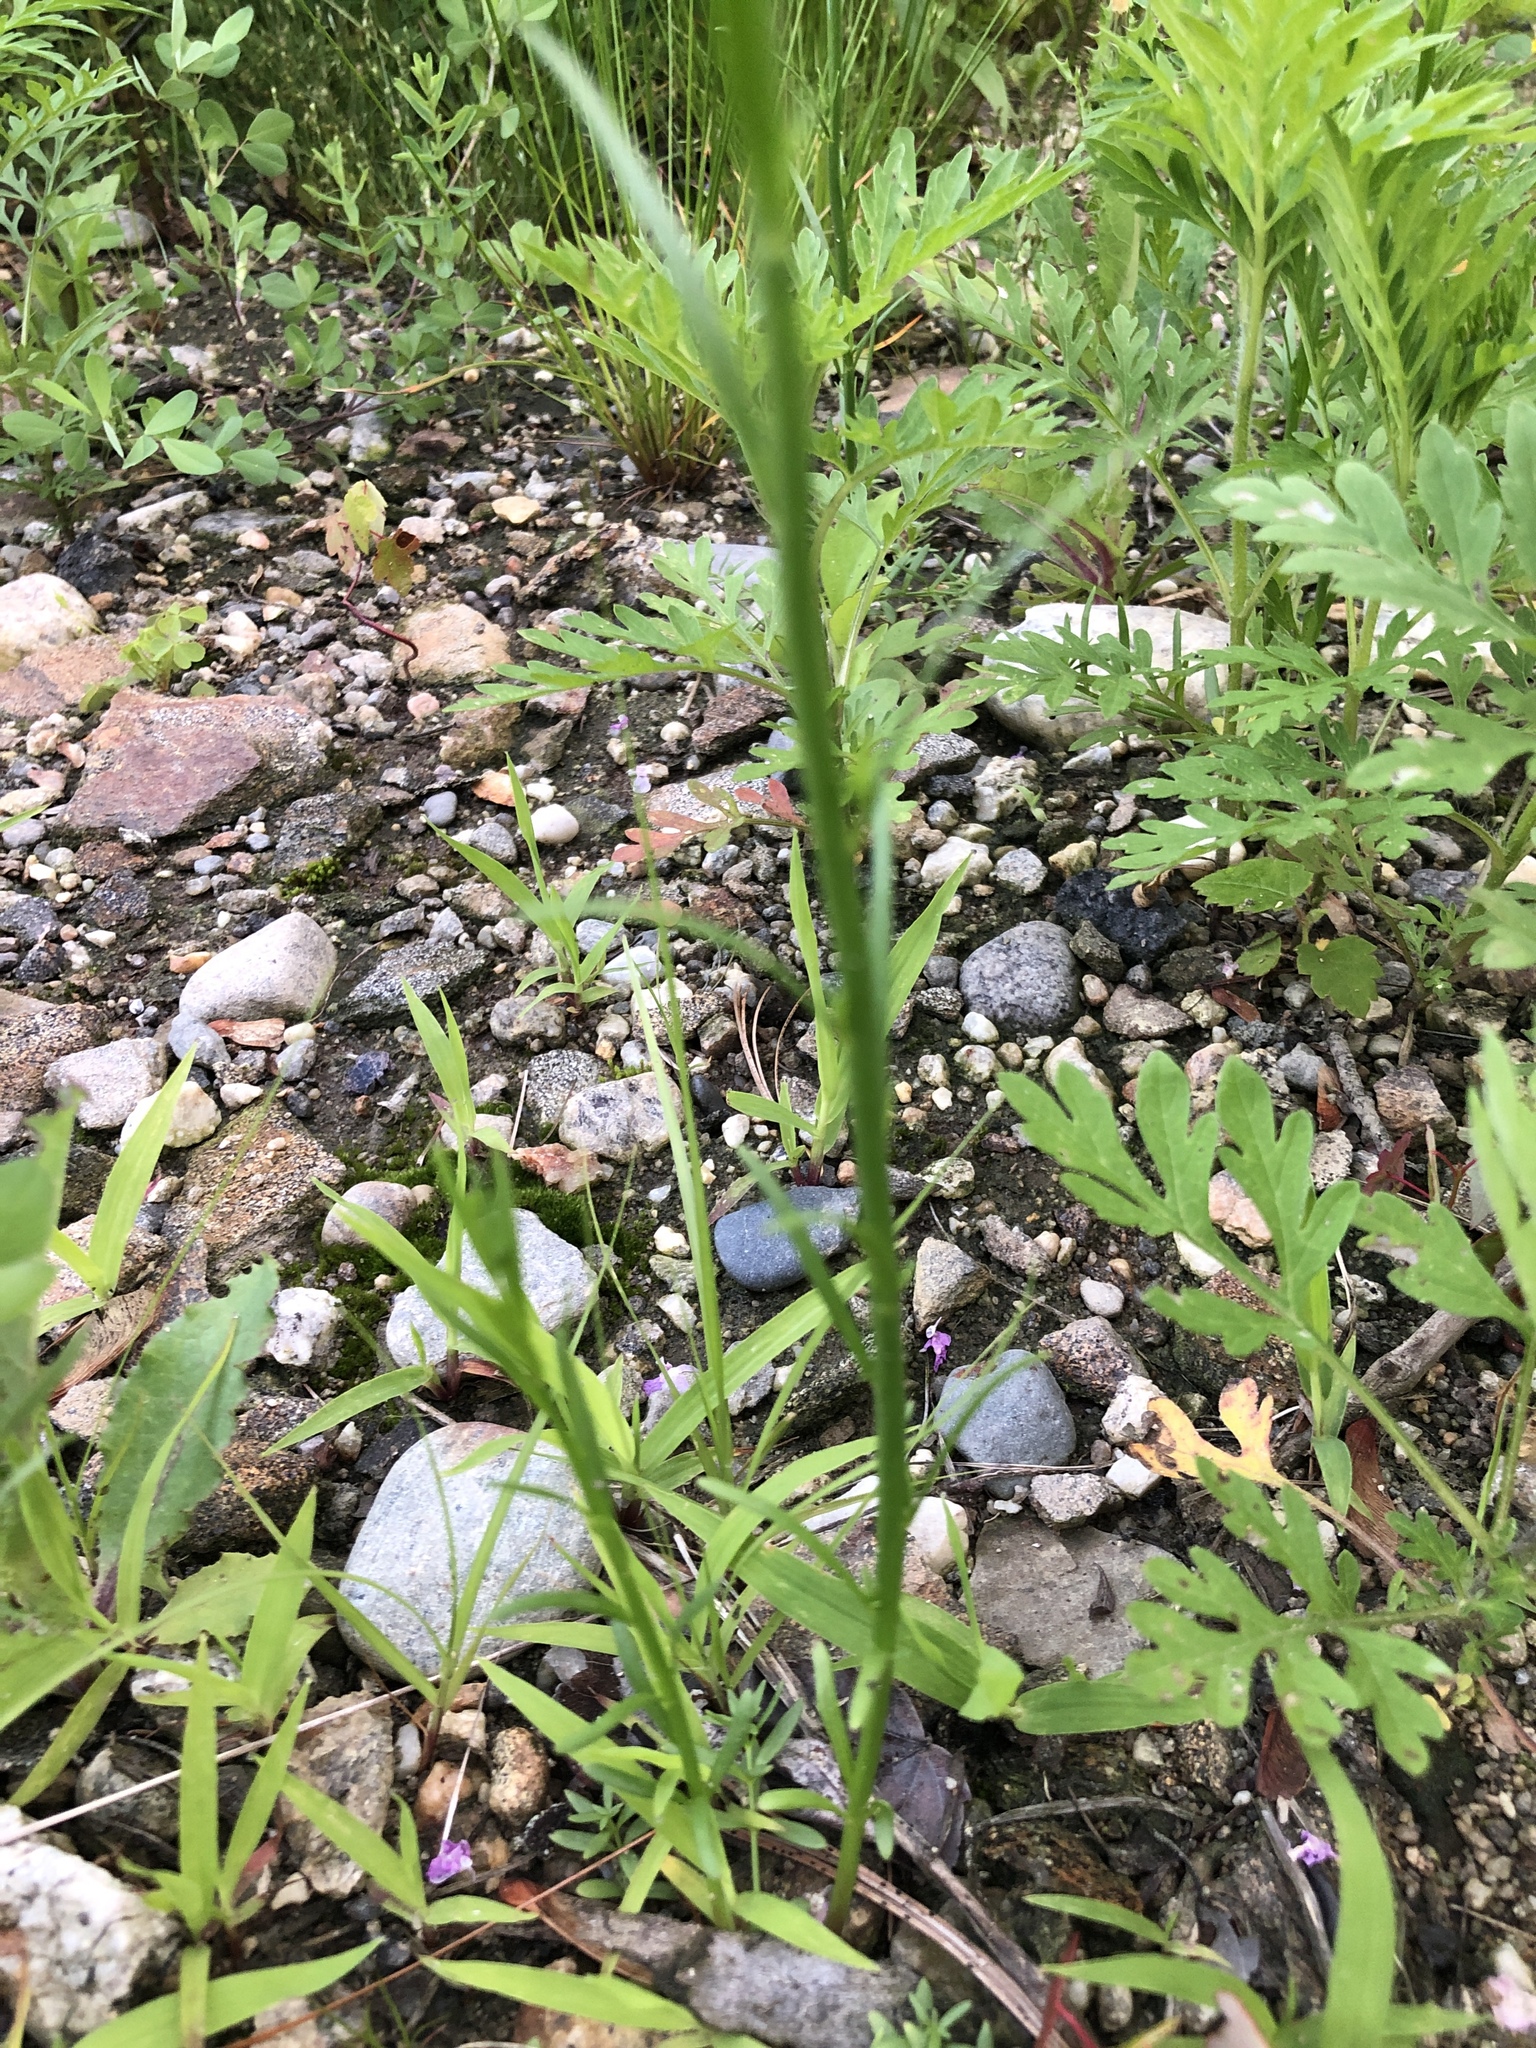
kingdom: Plantae
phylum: Tracheophyta
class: Magnoliopsida
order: Lamiales
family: Plantaginaceae
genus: Nuttallanthus
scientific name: Nuttallanthus canadensis
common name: Blue toadflax
